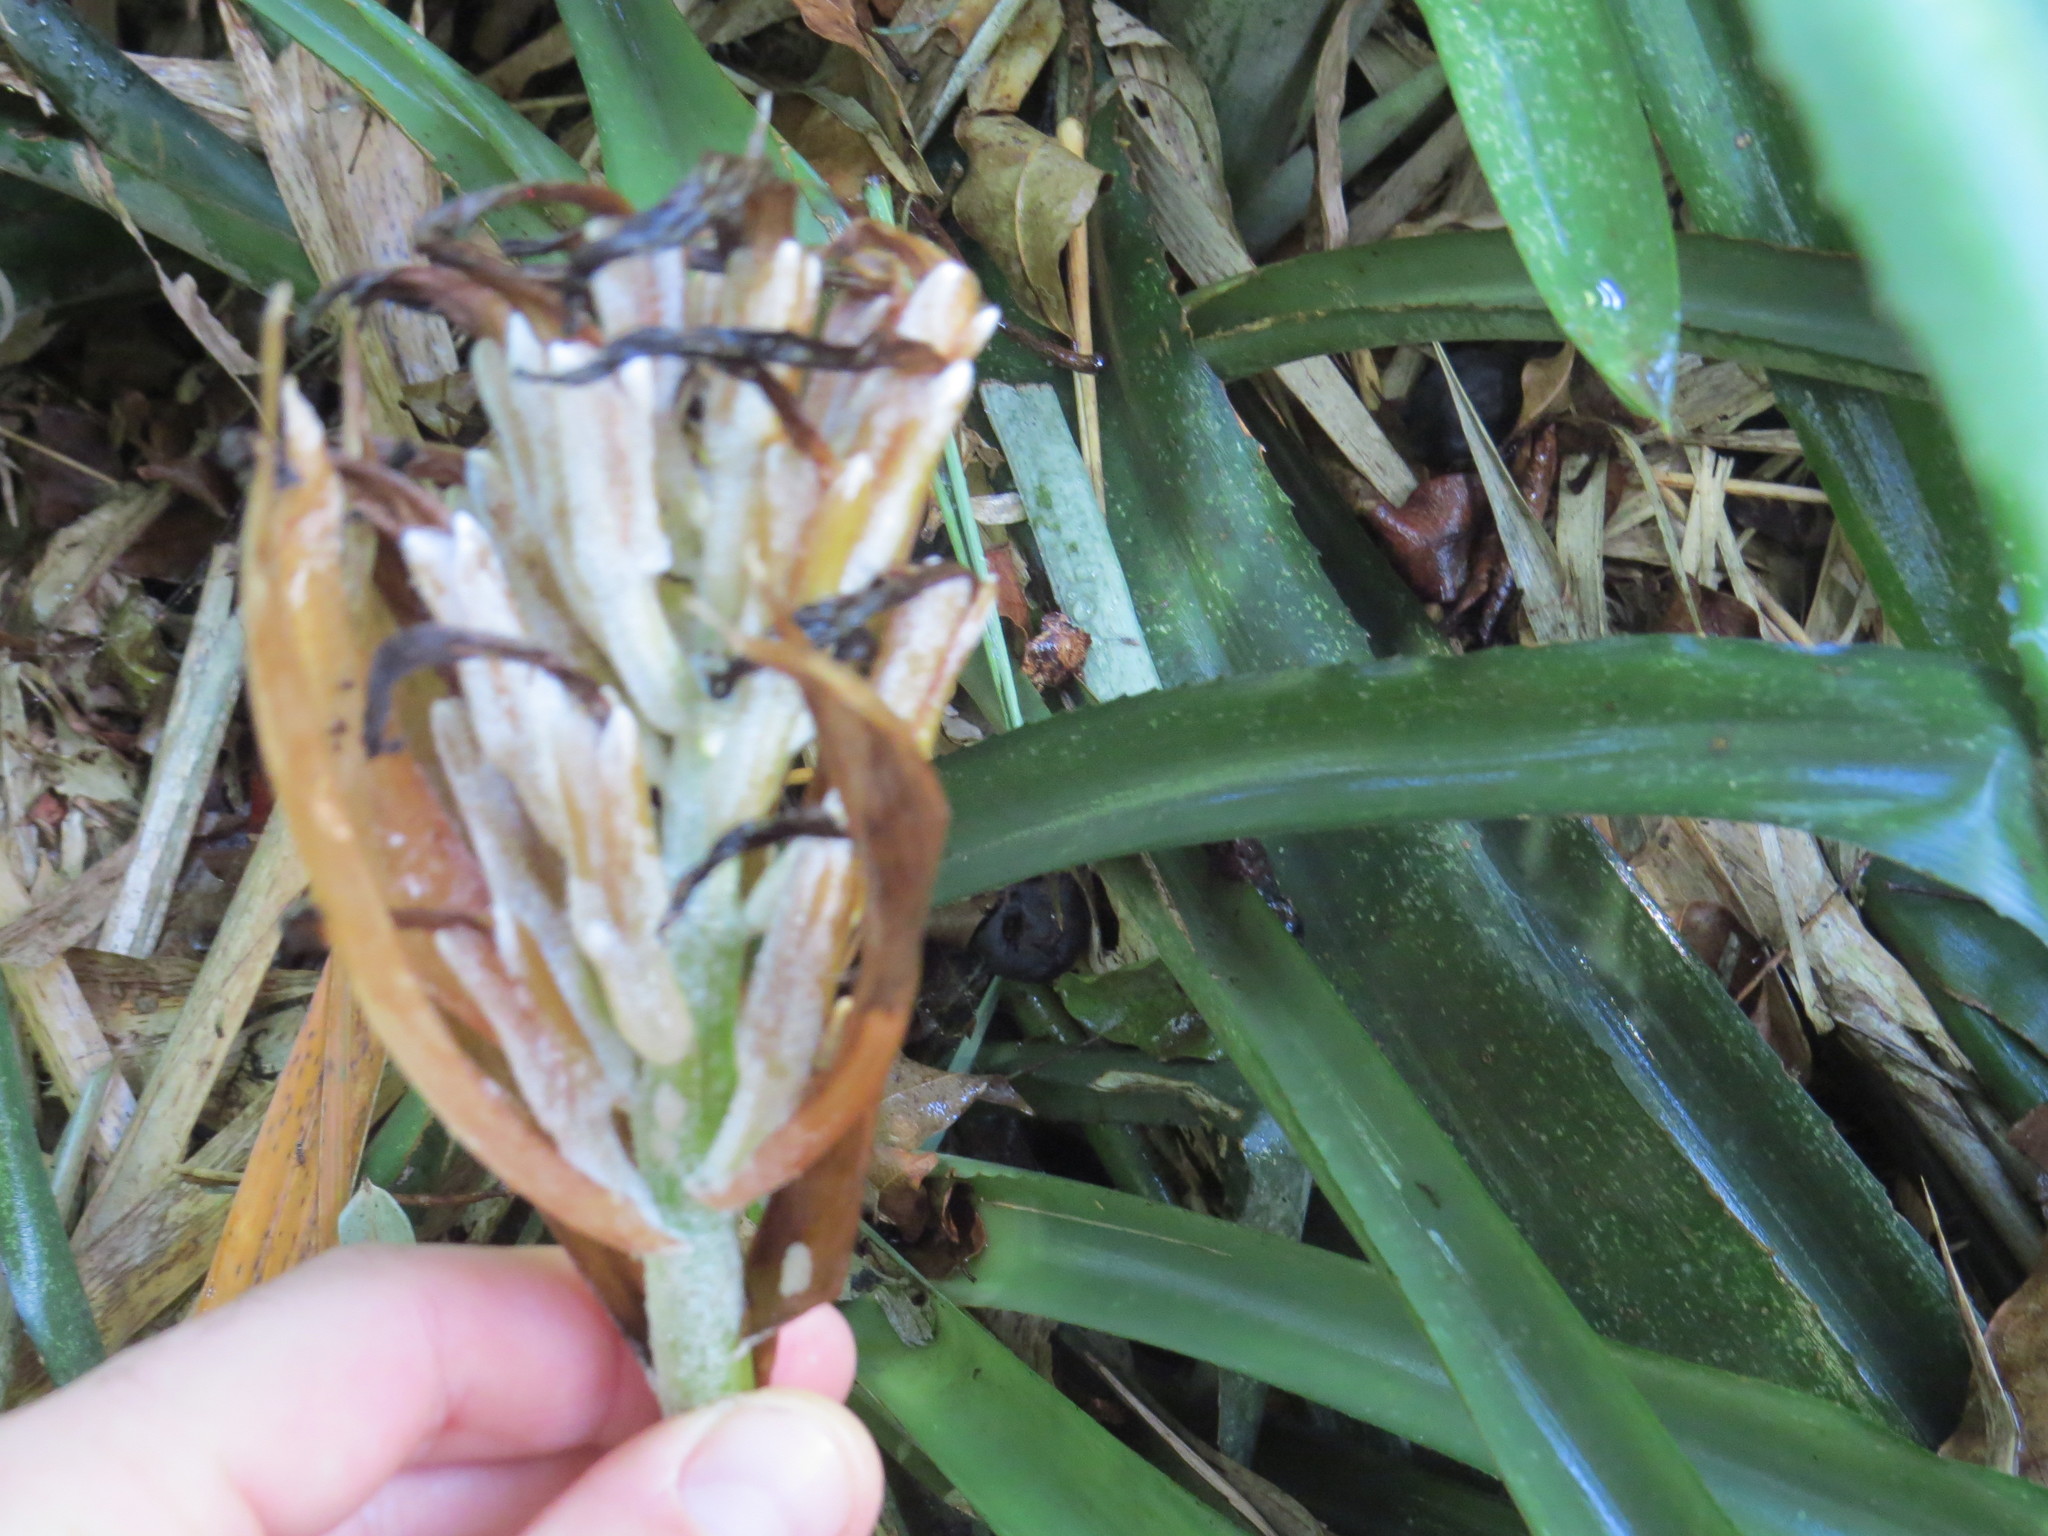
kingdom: Plantae
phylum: Tracheophyta
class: Liliopsida
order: Poales
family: Bromeliaceae
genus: Billbergia
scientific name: Billbergia pyramidalis
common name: Foolproofplant
